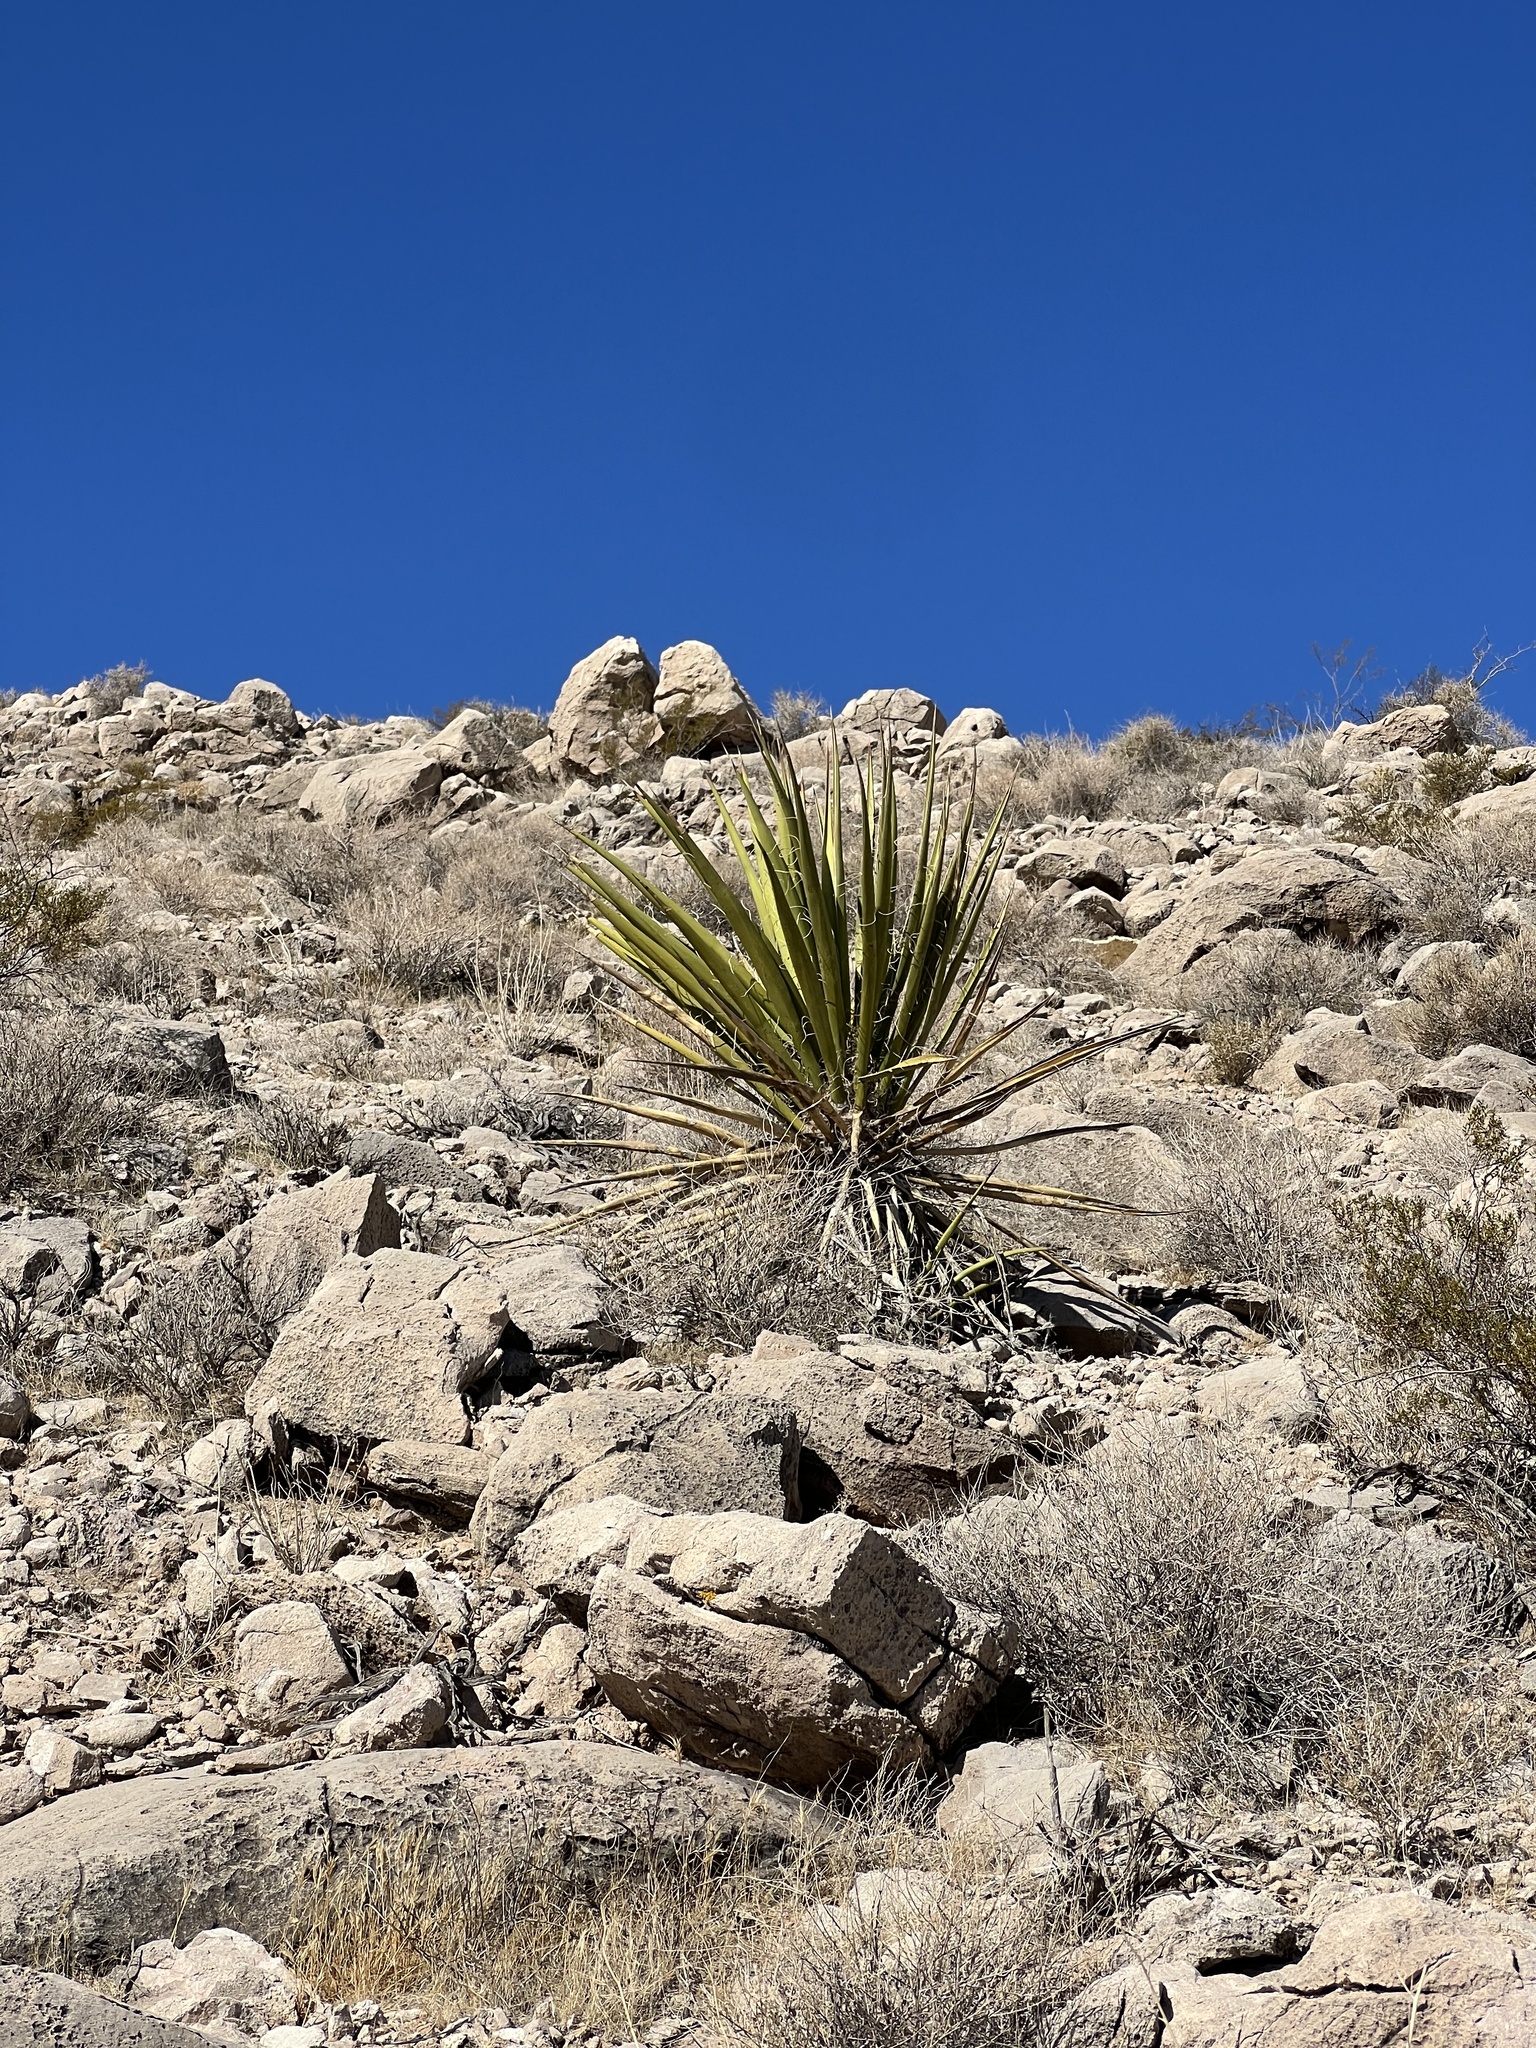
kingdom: Plantae
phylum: Tracheophyta
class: Liliopsida
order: Asparagales
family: Asparagaceae
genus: Yucca
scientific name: Yucca schidigera
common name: Mojave yucca
